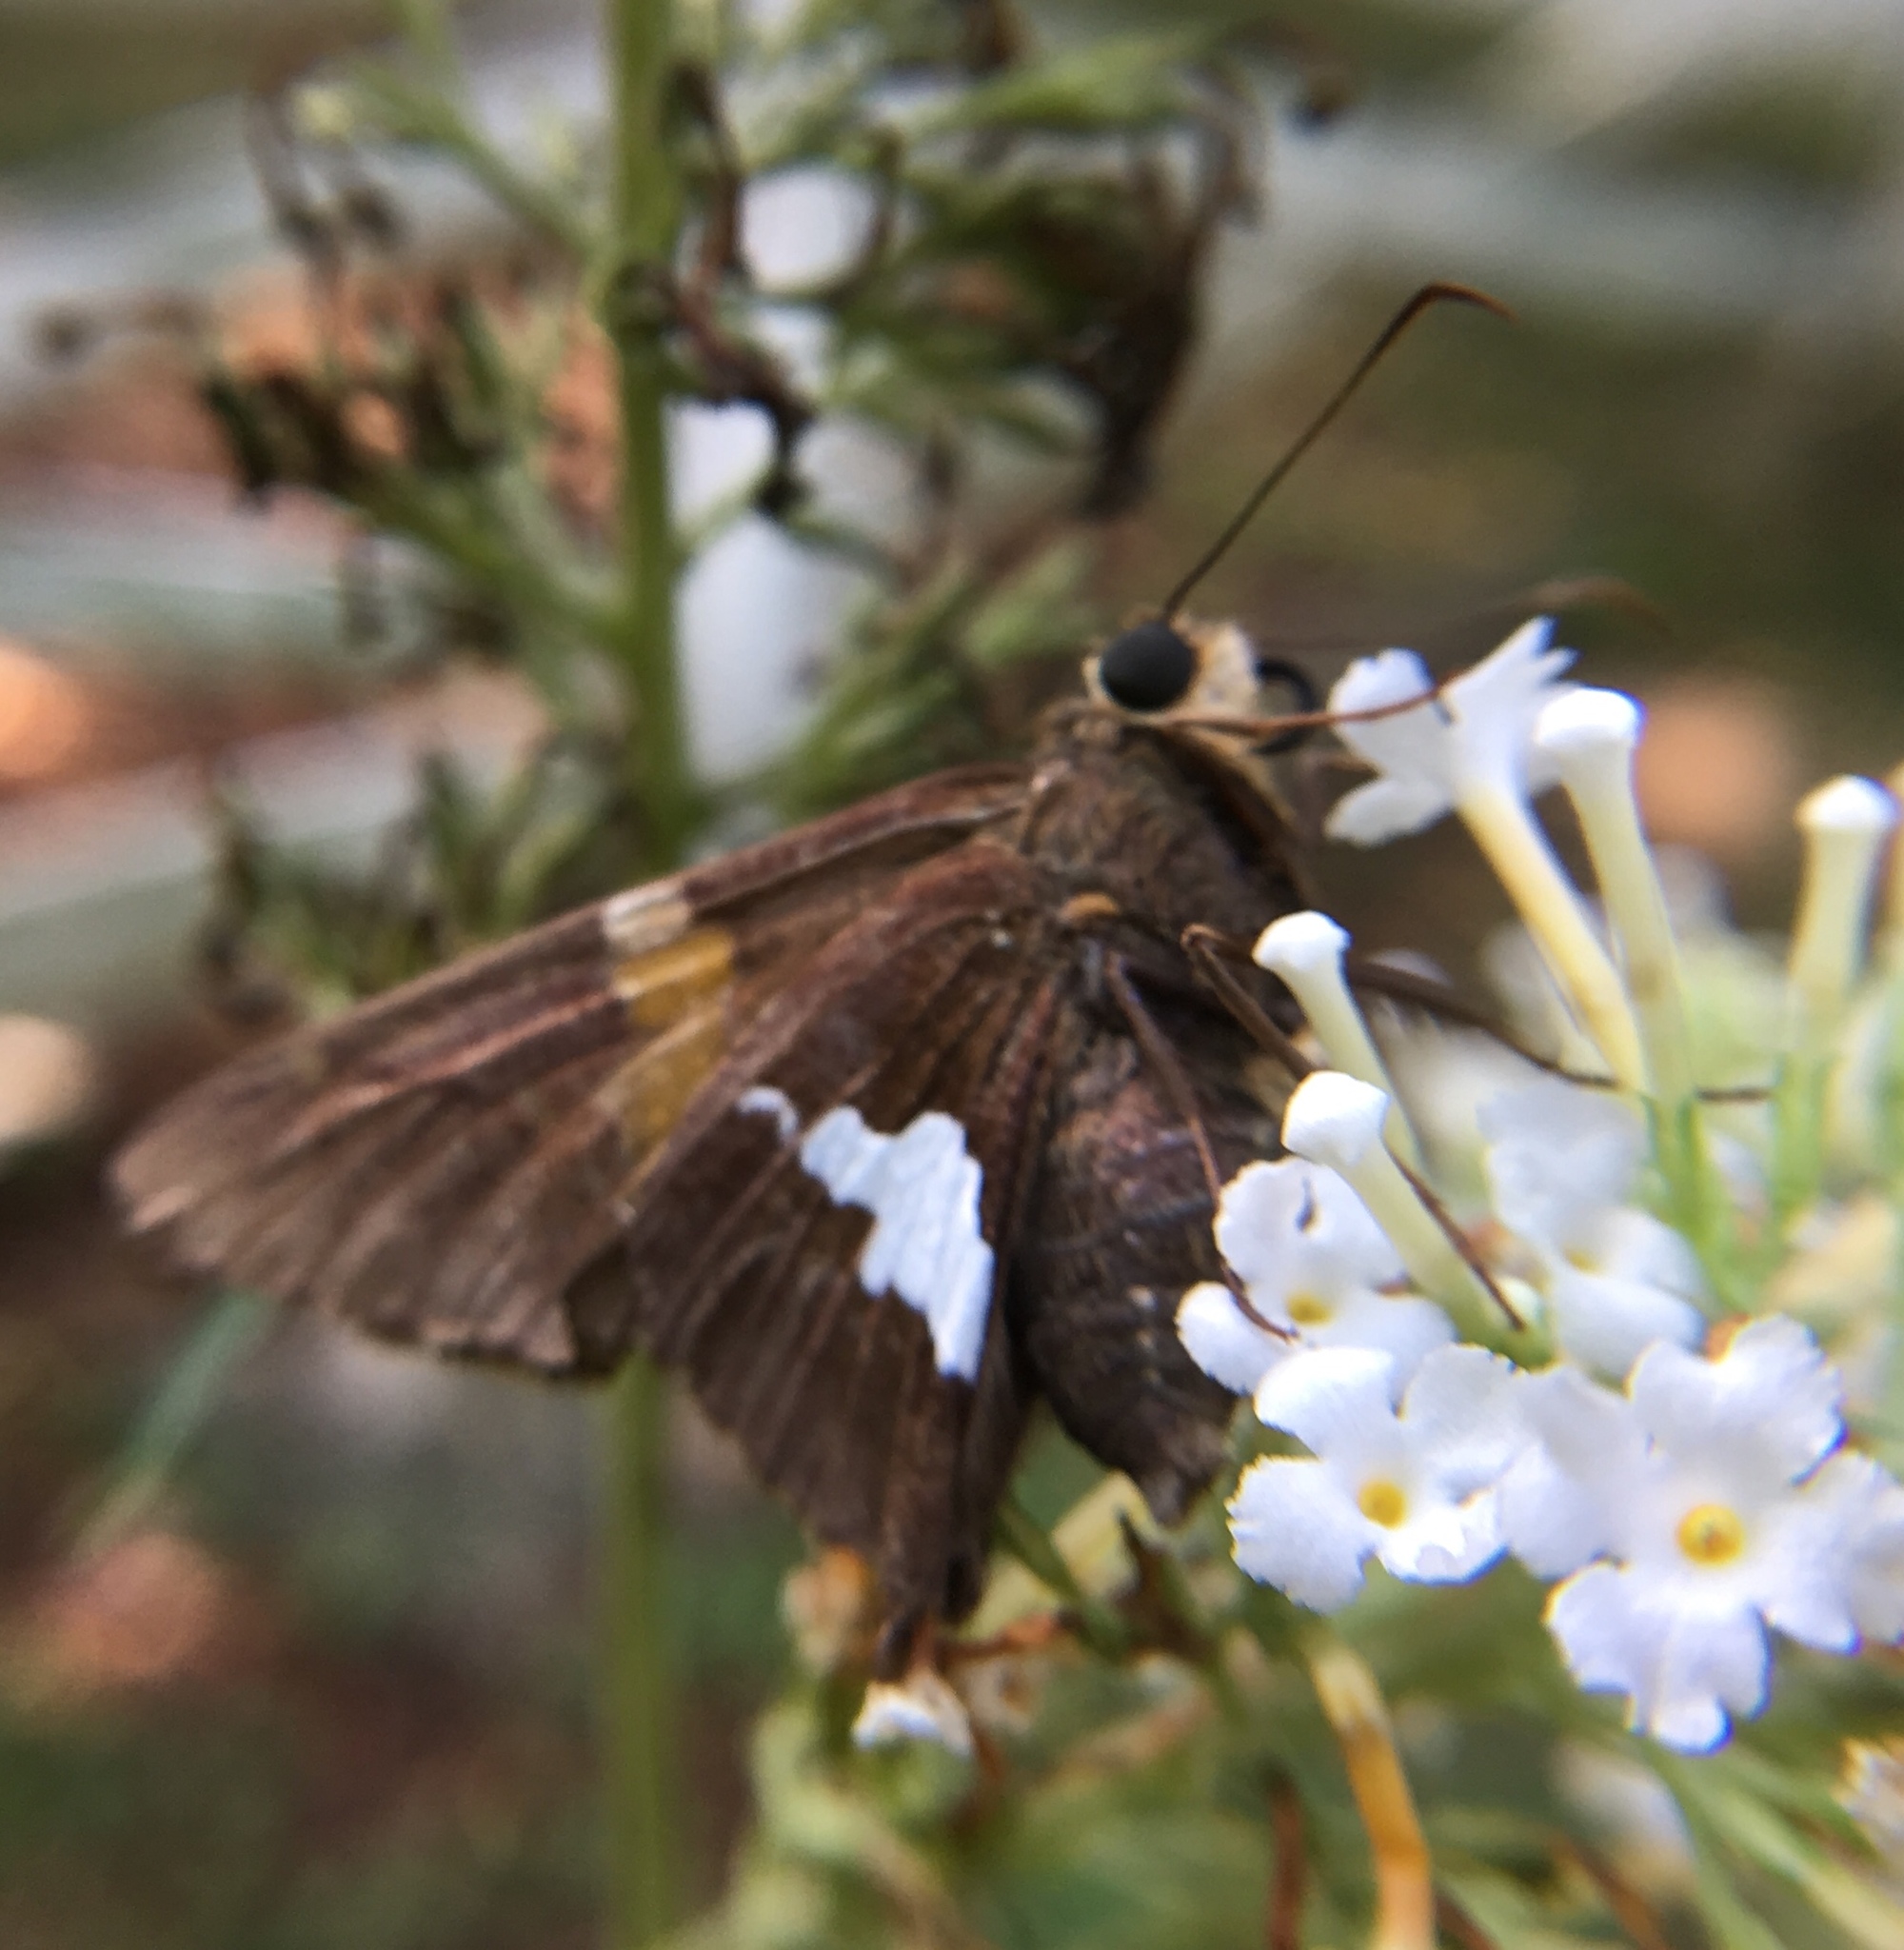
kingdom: Animalia
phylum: Arthropoda
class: Insecta
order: Lepidoptera
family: Hesperiidae
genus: Epargyreus
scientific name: Epargyreus clarus
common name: Silver-spotted skipper
